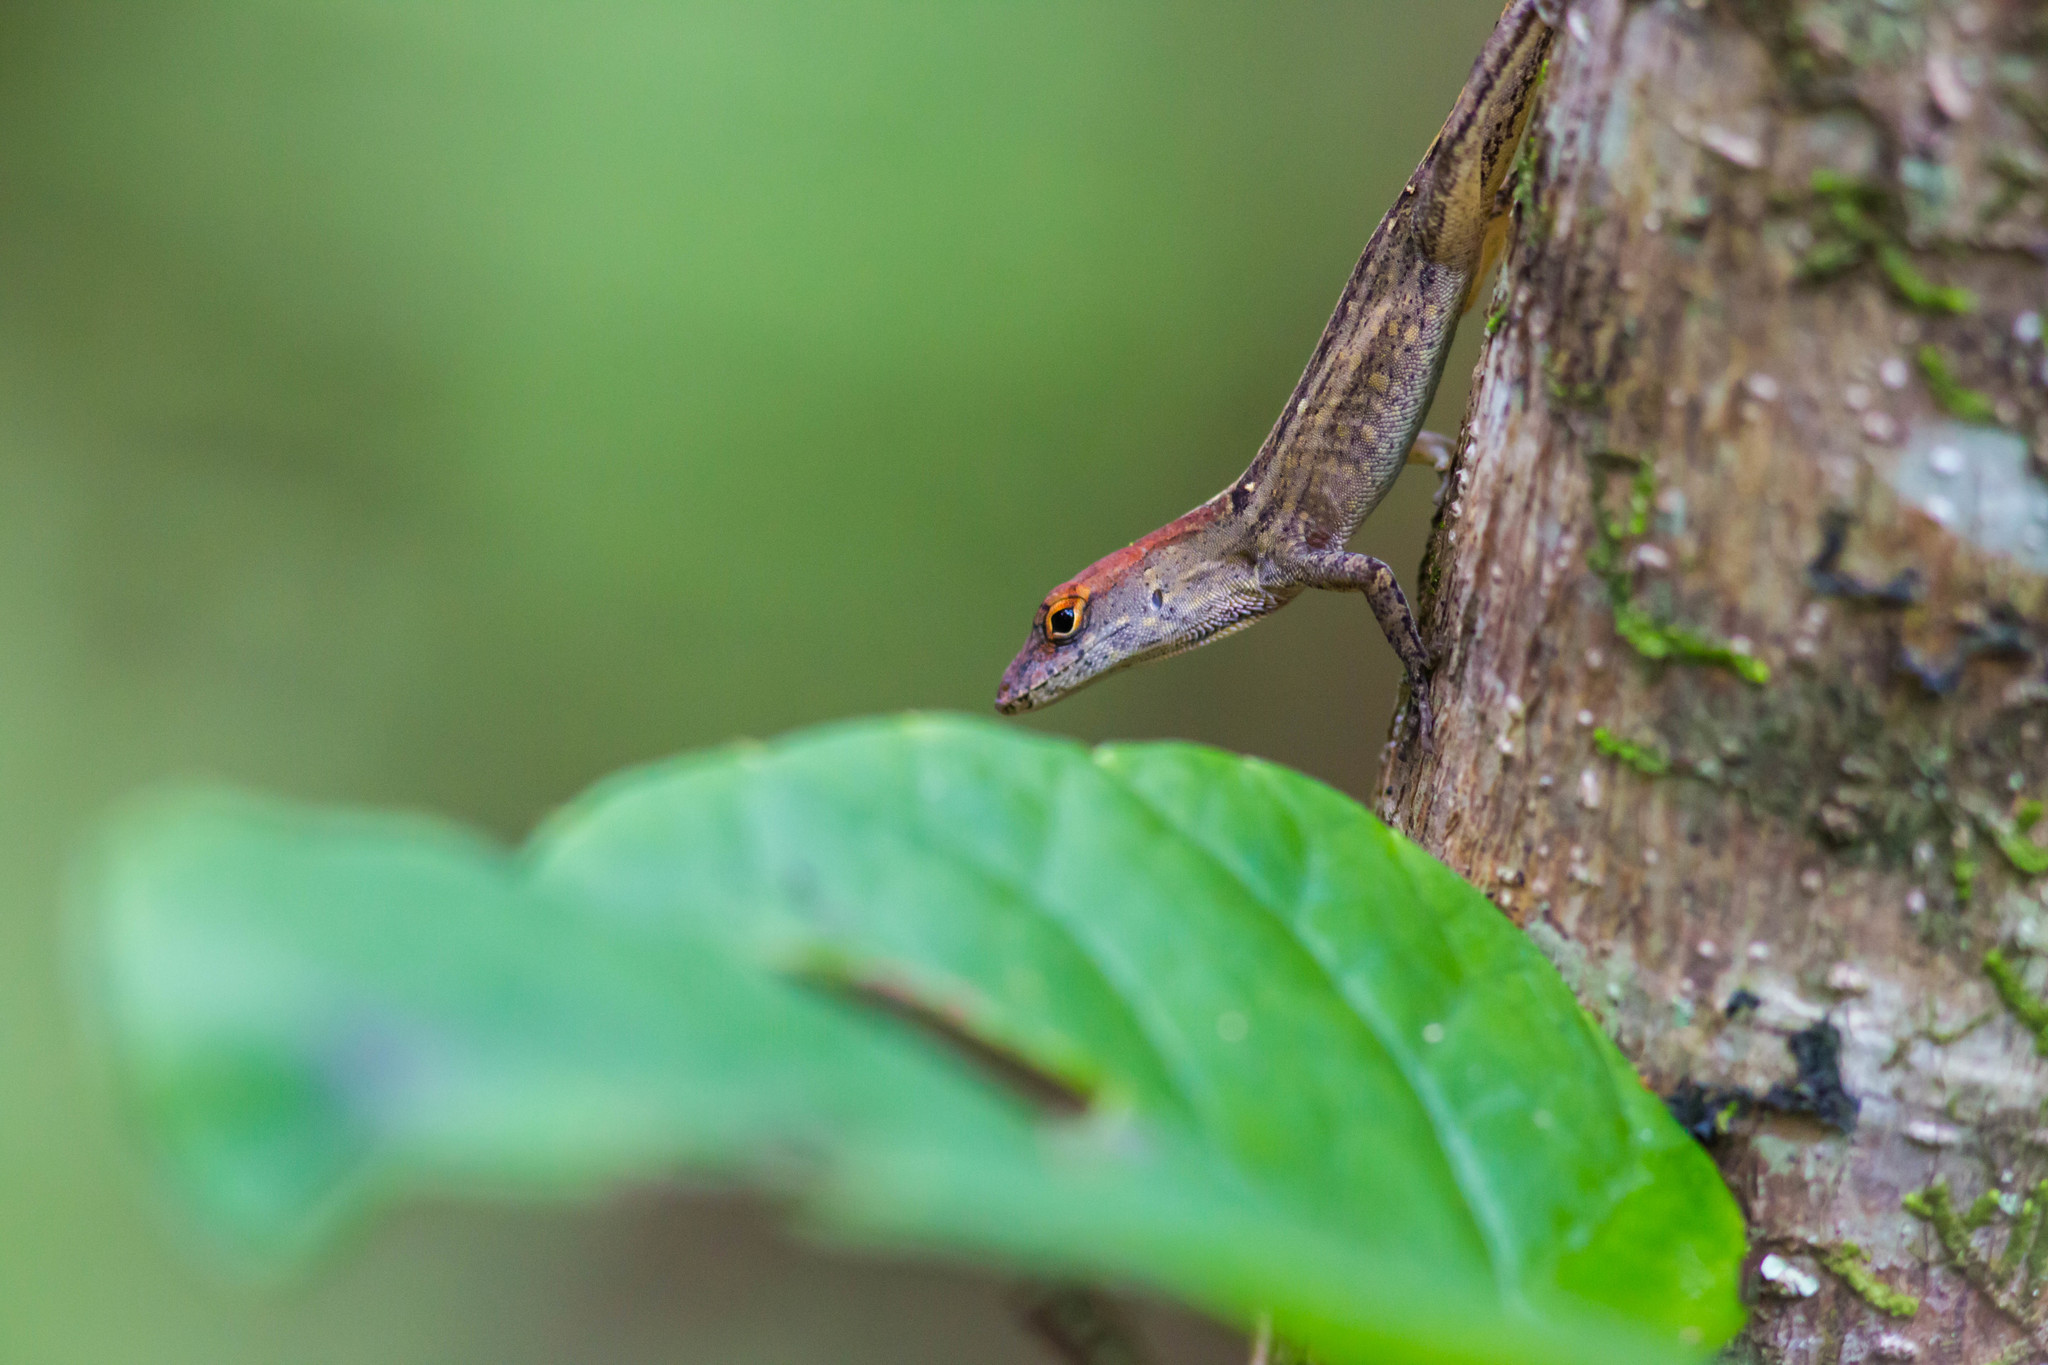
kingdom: Animalia
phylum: Chordata
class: Squamata
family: Dactyloidae
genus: Anolis
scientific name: Anolis sagrei
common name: Brown anole
